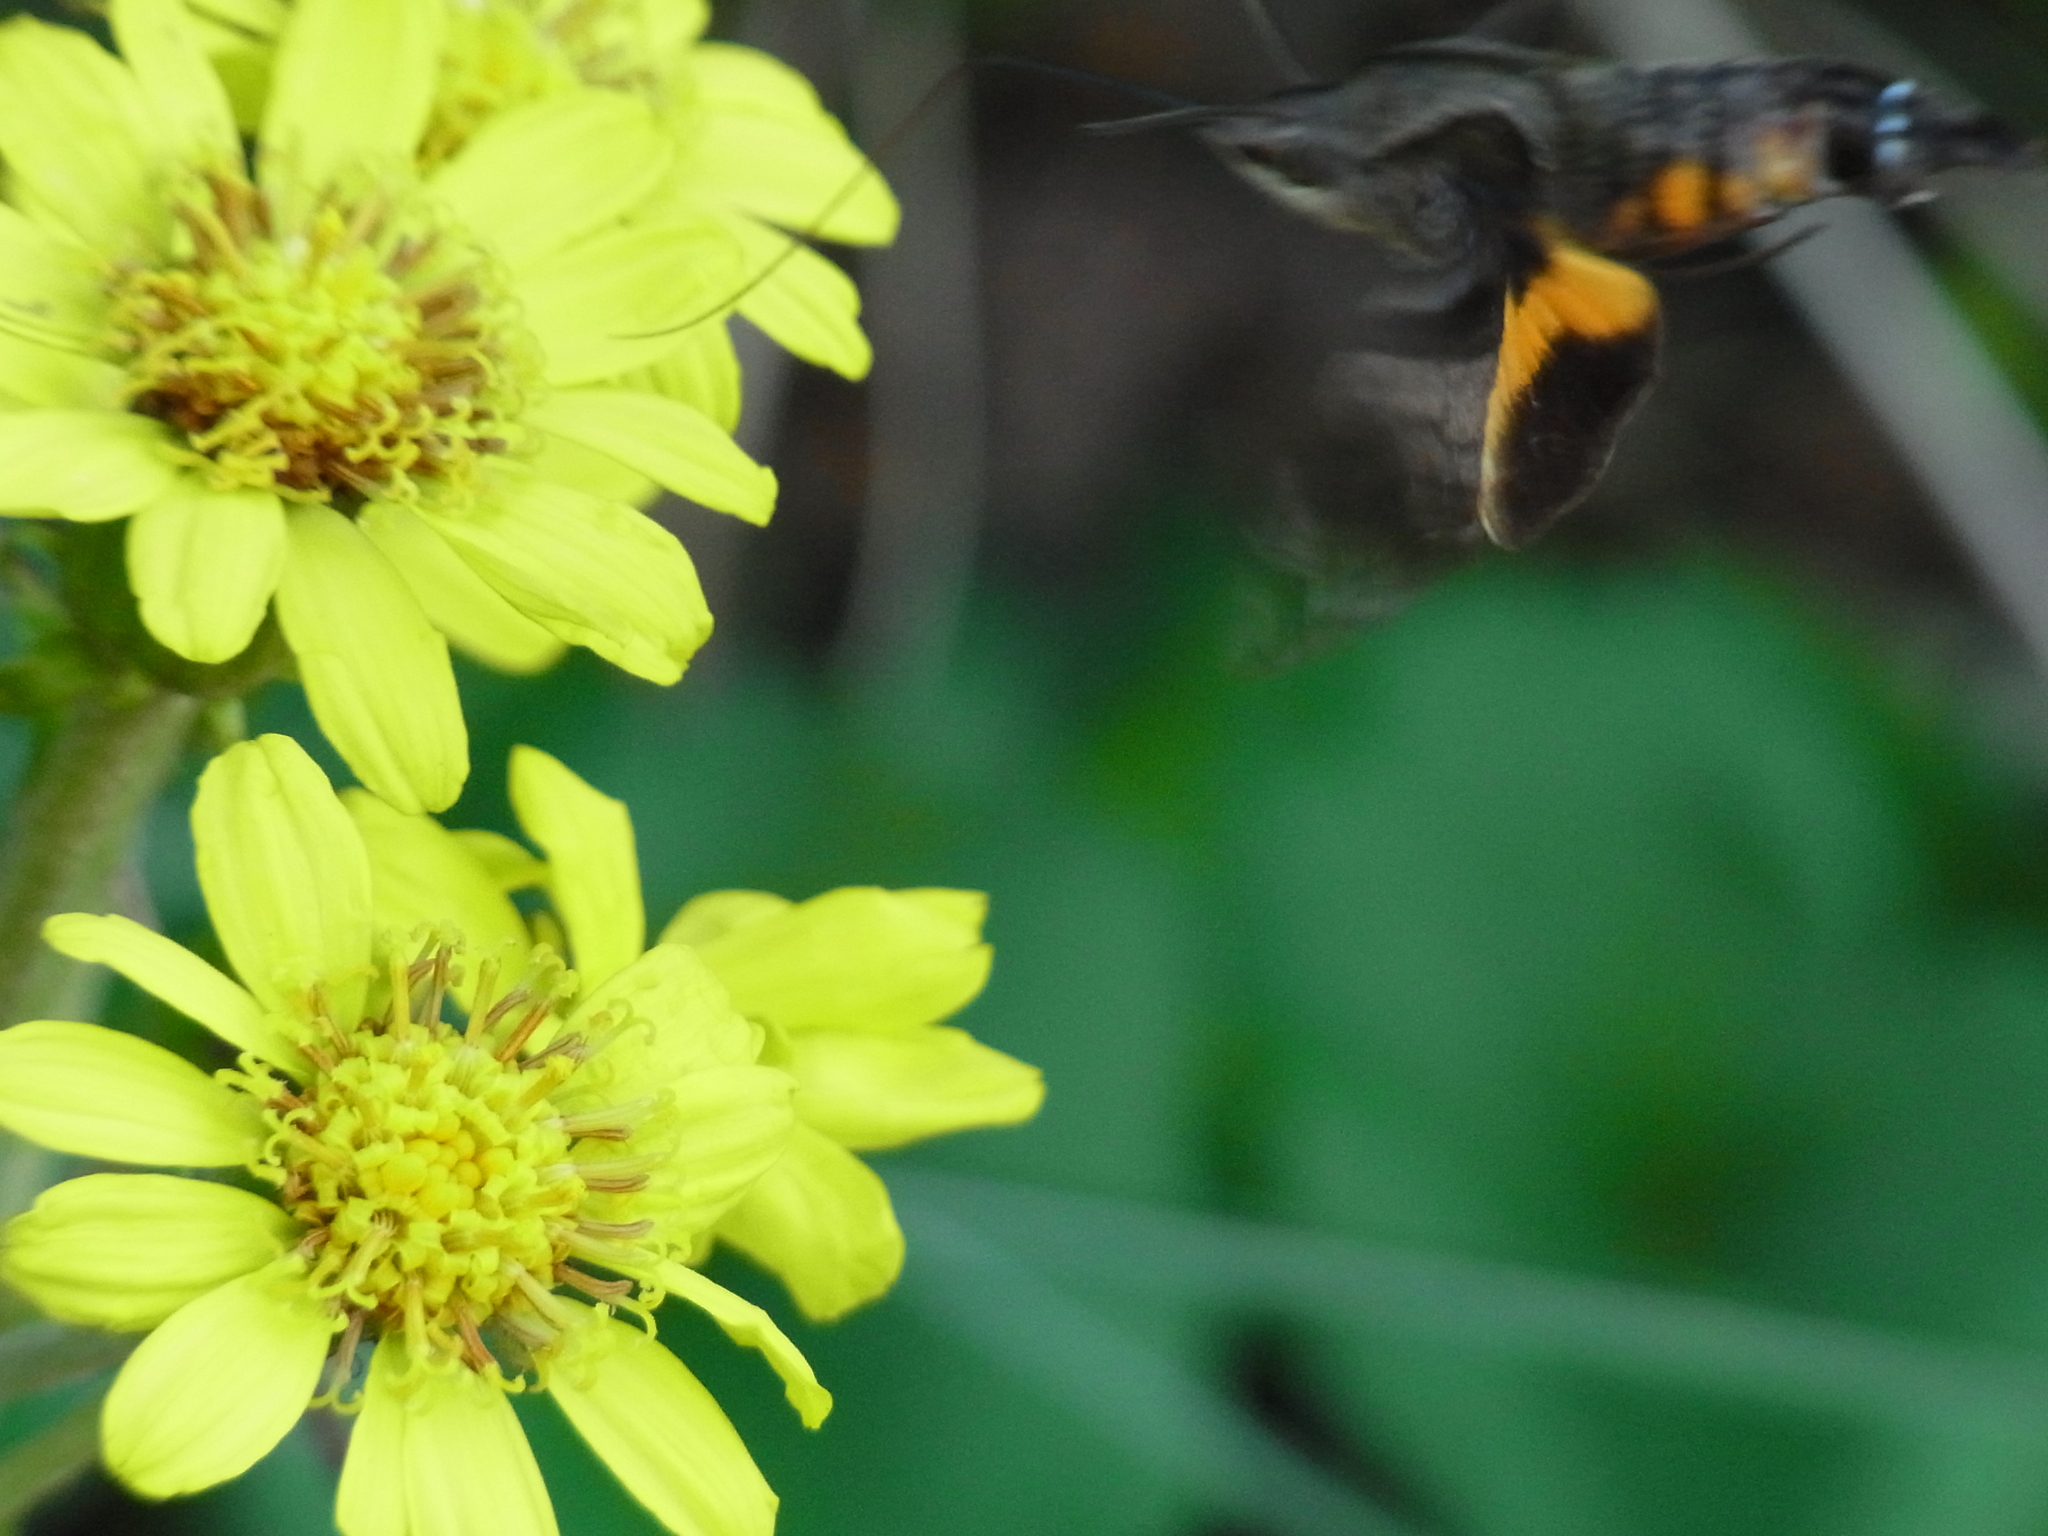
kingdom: Animalia
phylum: Arthropoda
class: Insecta
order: Lepidoptera
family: Sphingidae
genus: Macroglossum
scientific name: Macroglossum pyrrhosticta
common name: Hummingbird hawk moth
